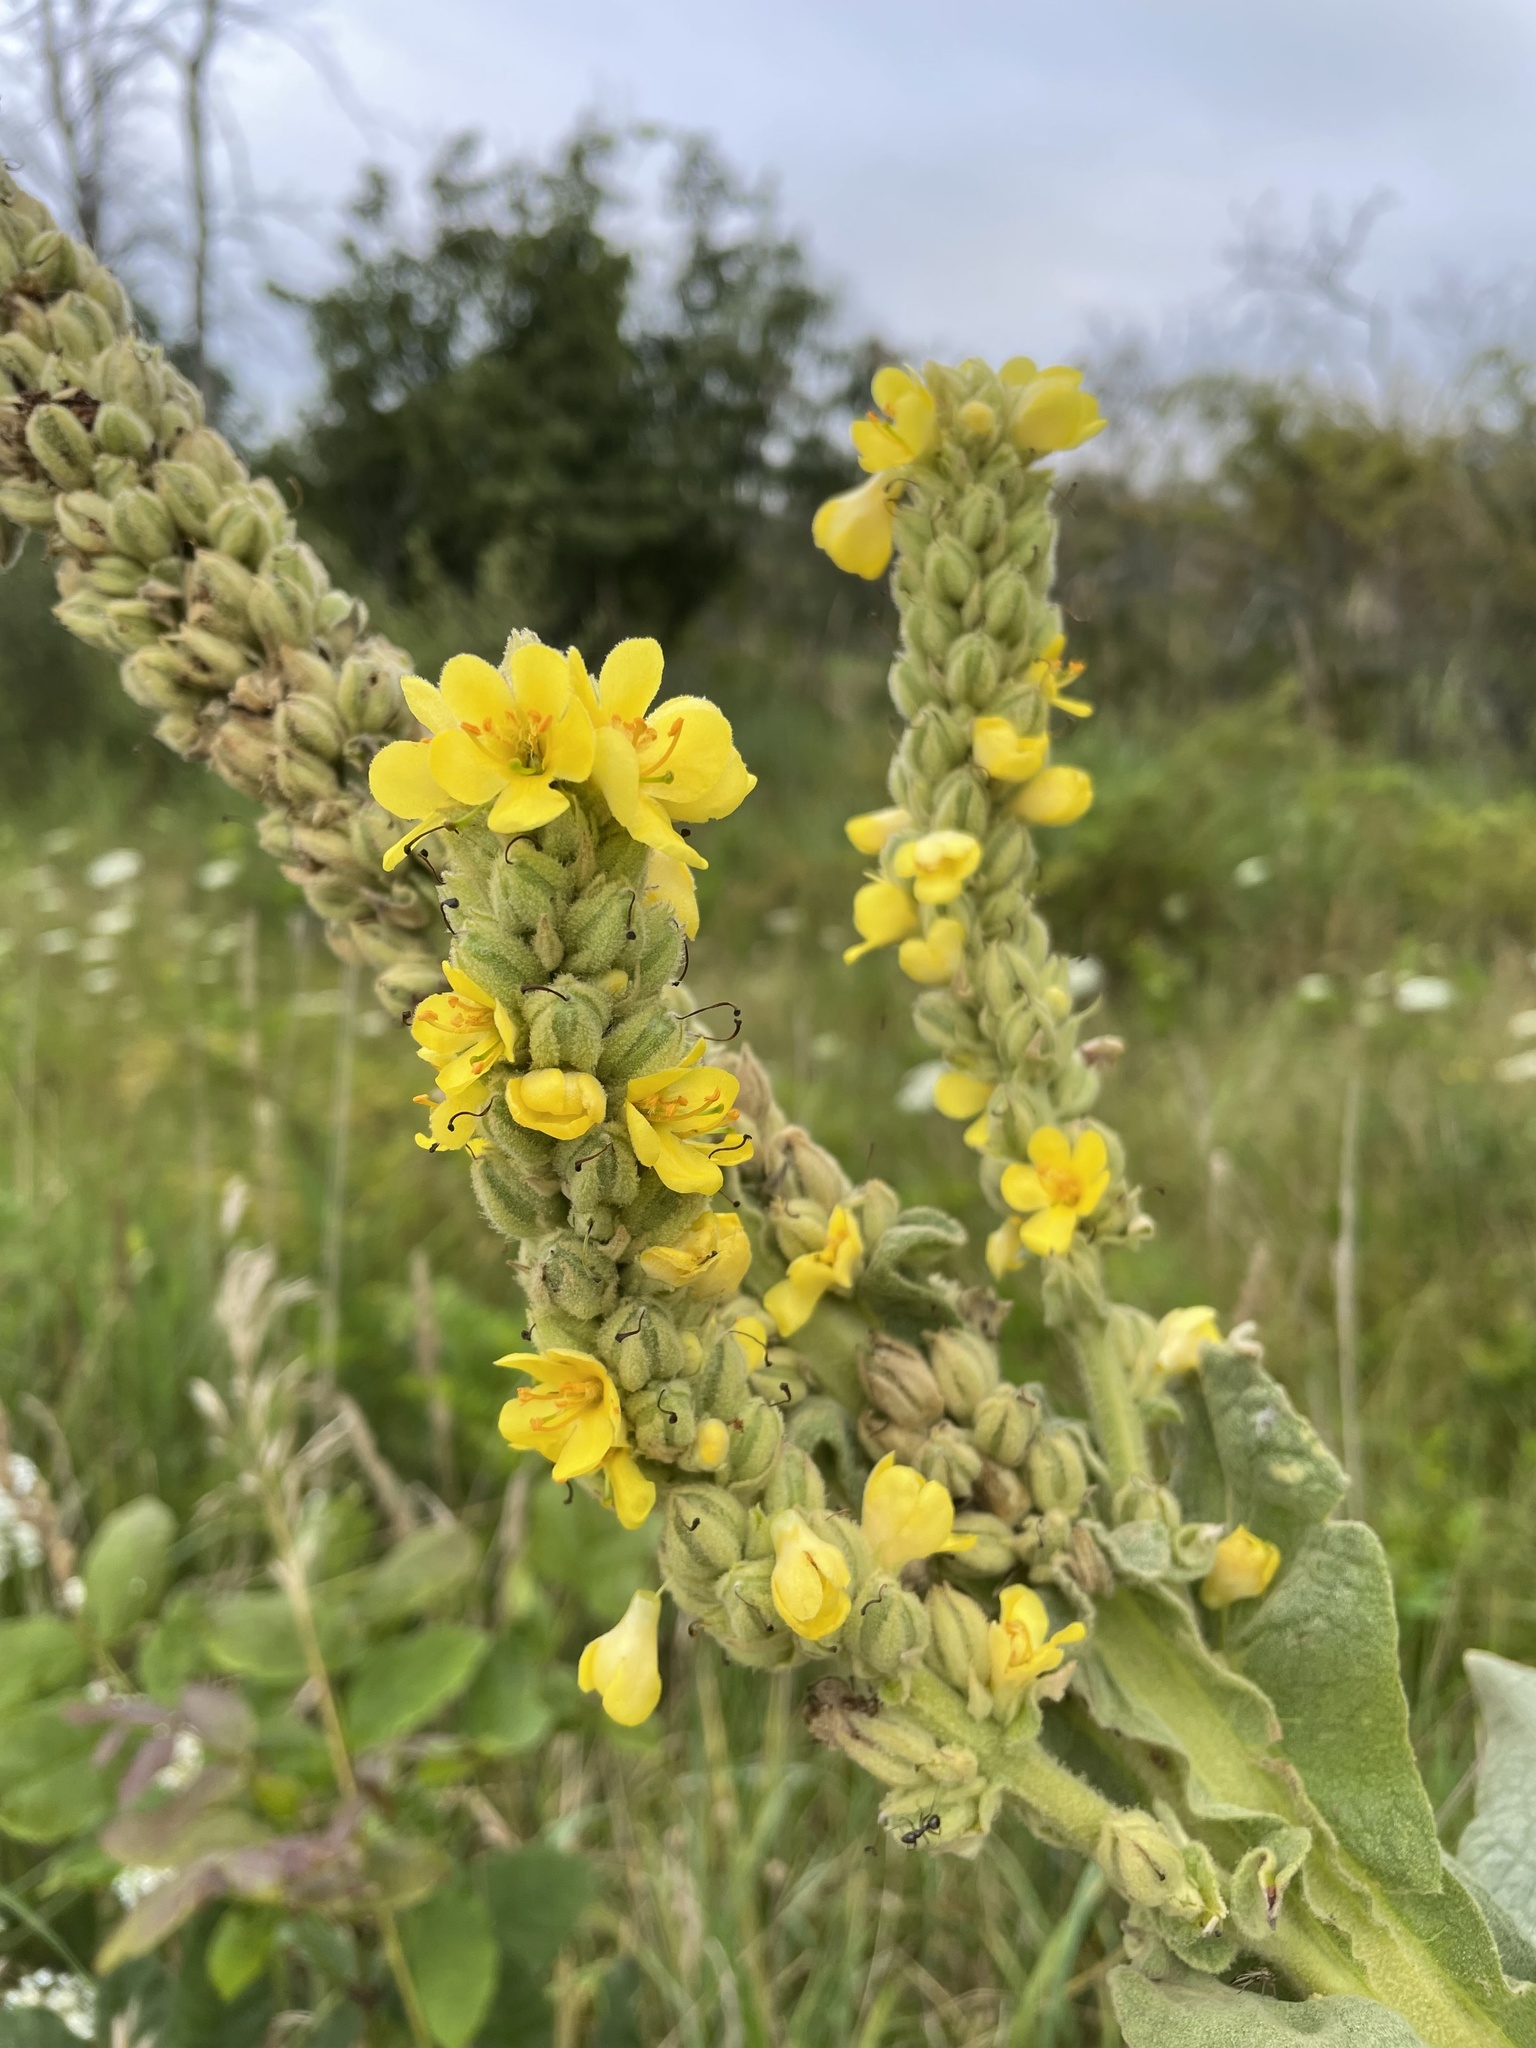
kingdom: Plantae
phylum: Tracheophyta
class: Magnoliopsida
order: Lamiales
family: Scrophulariaceae
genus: Verbascum
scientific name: Verbascum thapsus
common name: Common mullein
